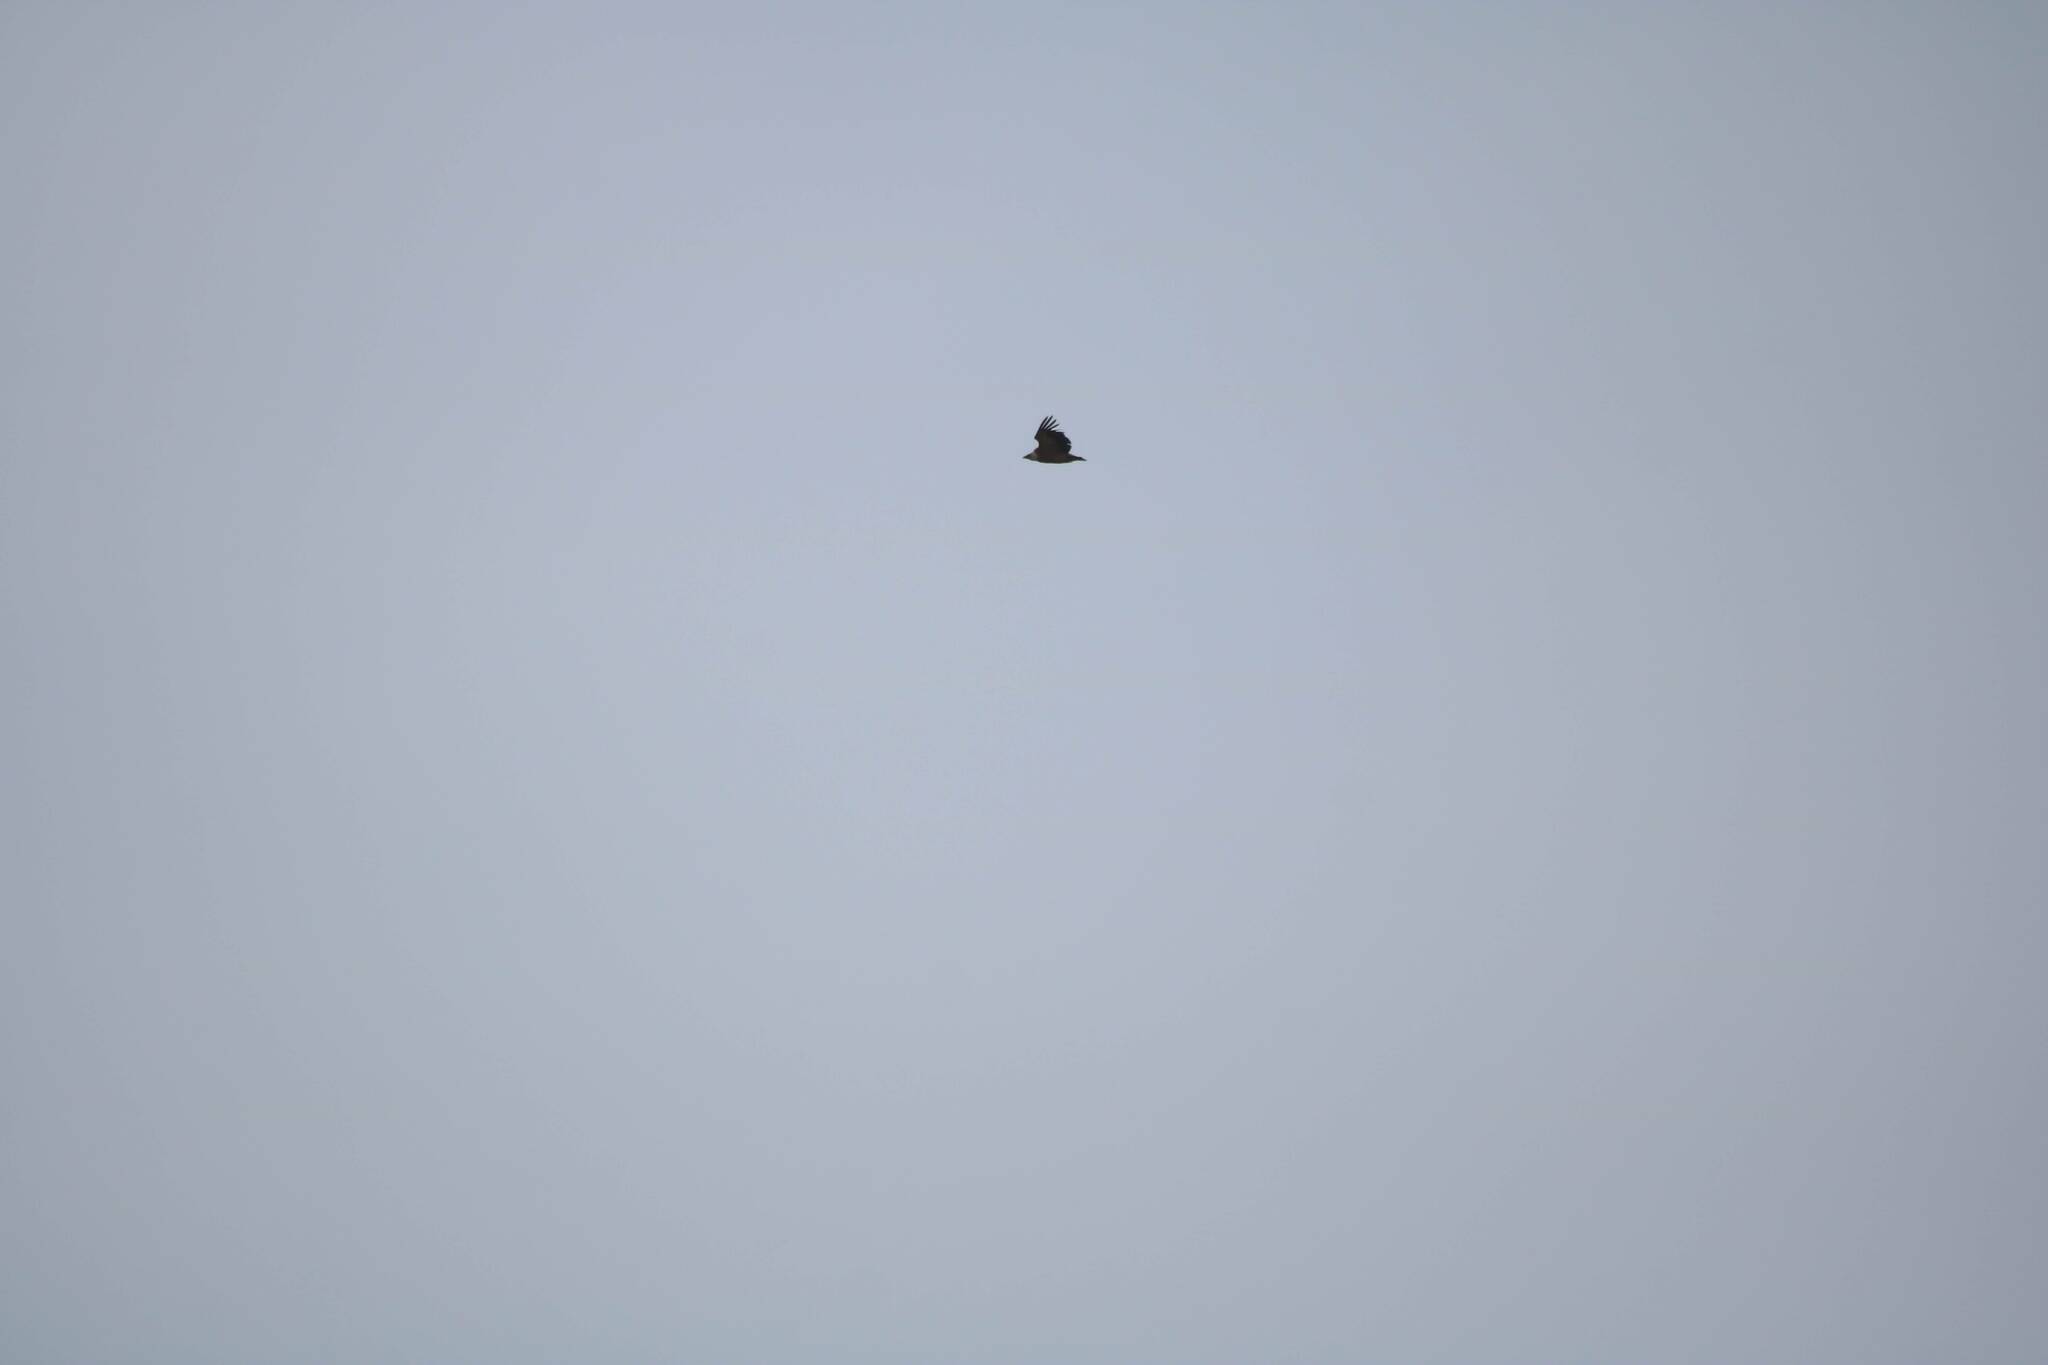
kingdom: Animalia
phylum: Chordata
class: Aves
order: Accipitriformes
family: Accipitridae
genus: Gyps
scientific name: Gyps fulvus
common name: Griffon vulture
